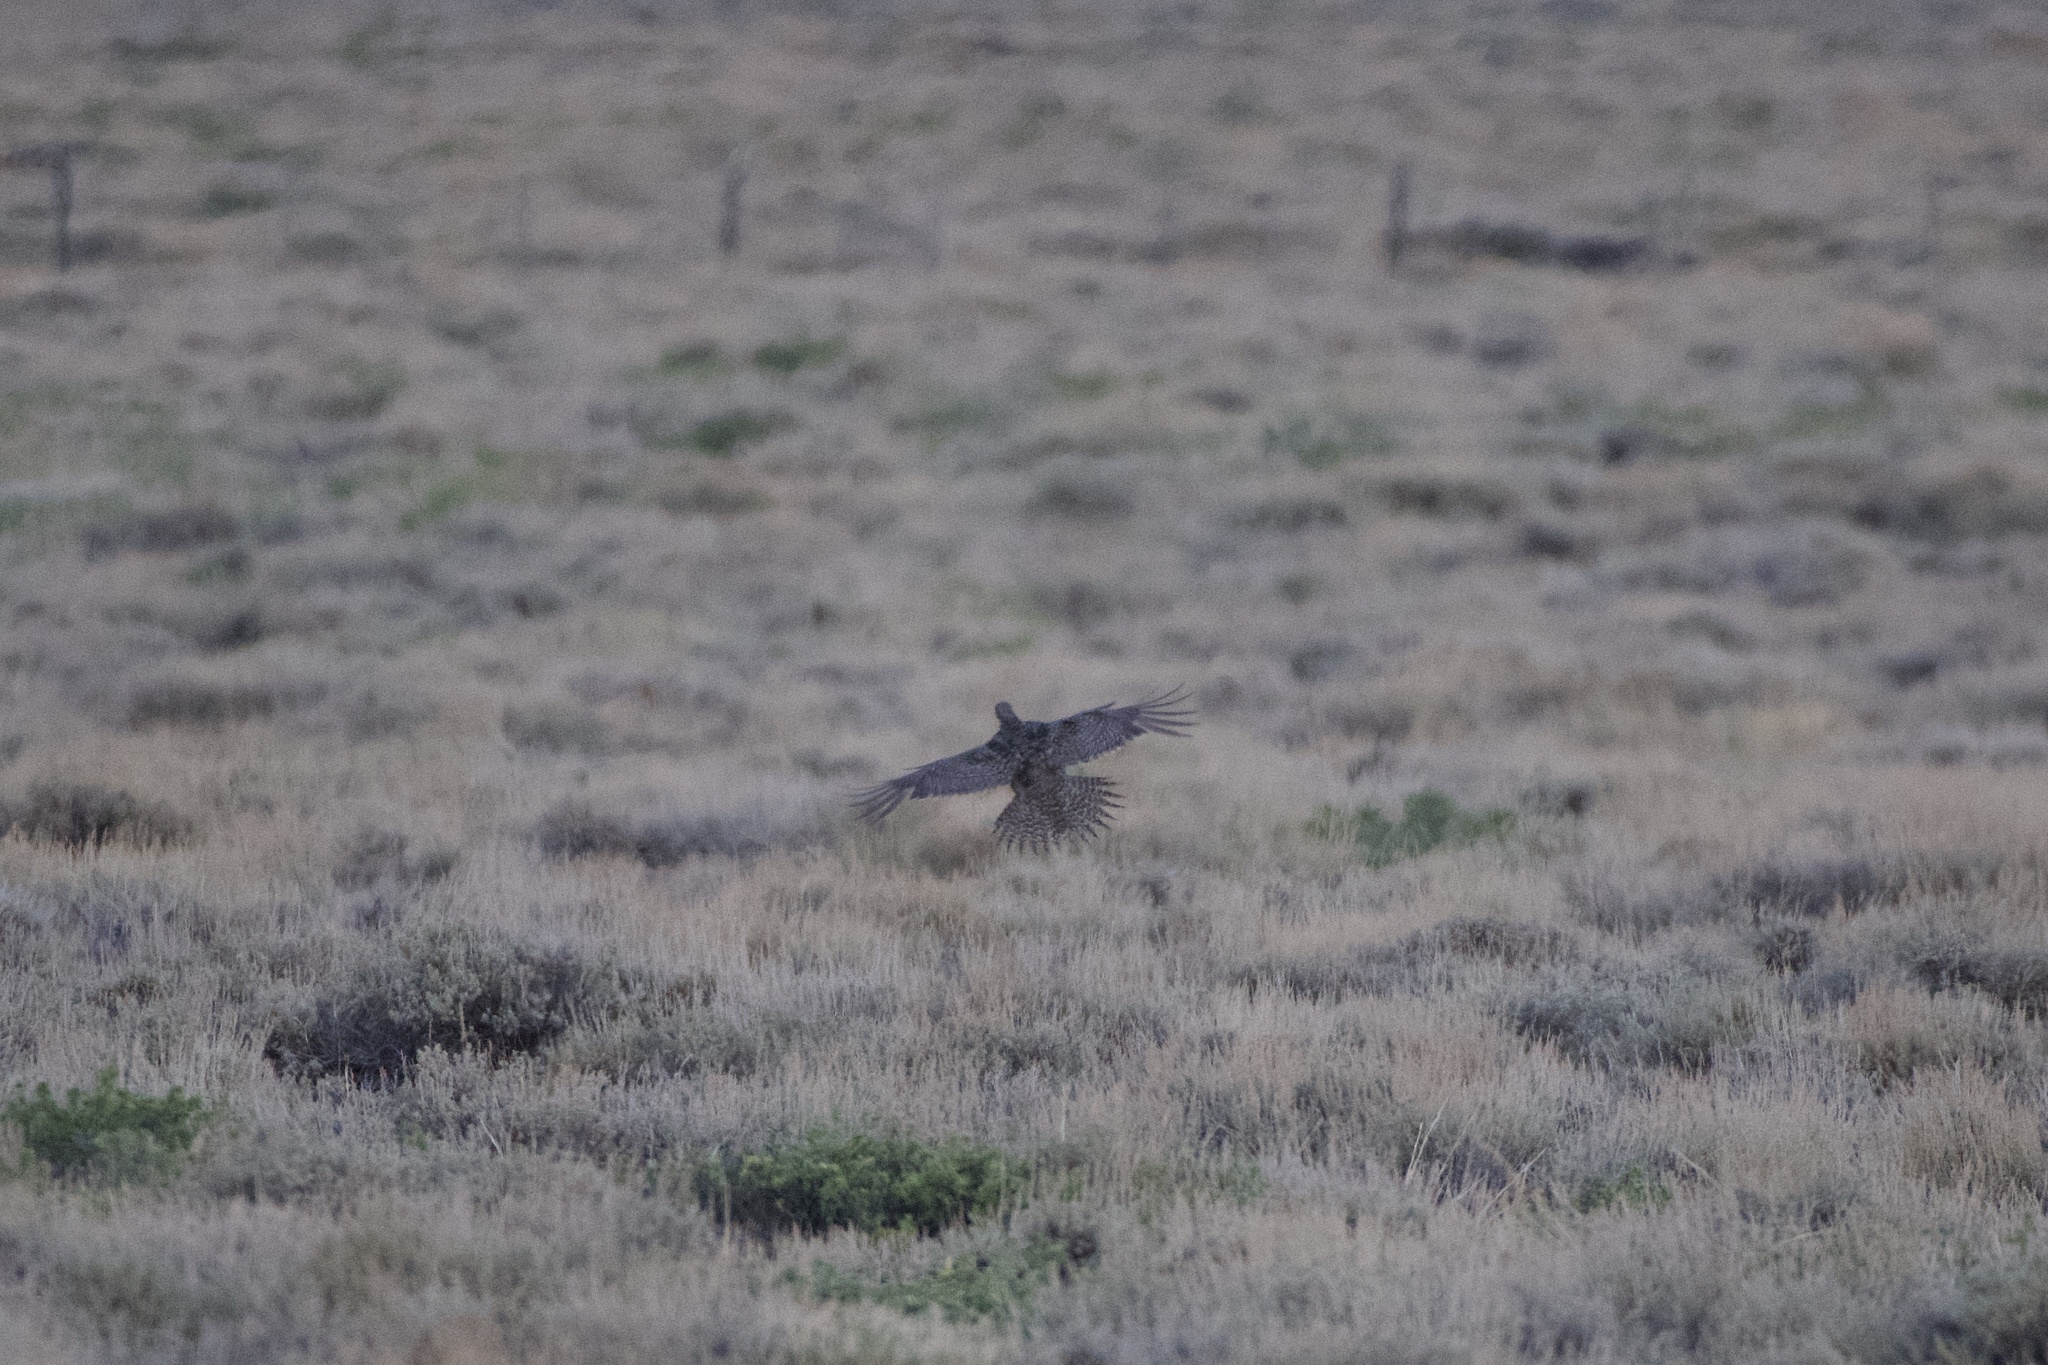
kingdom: Animalia
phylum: Chordata
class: Aves
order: Galliformes
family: Phasianidae
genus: Centrocercus
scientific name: Centrocercus urophasianus
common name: Sage grouse
